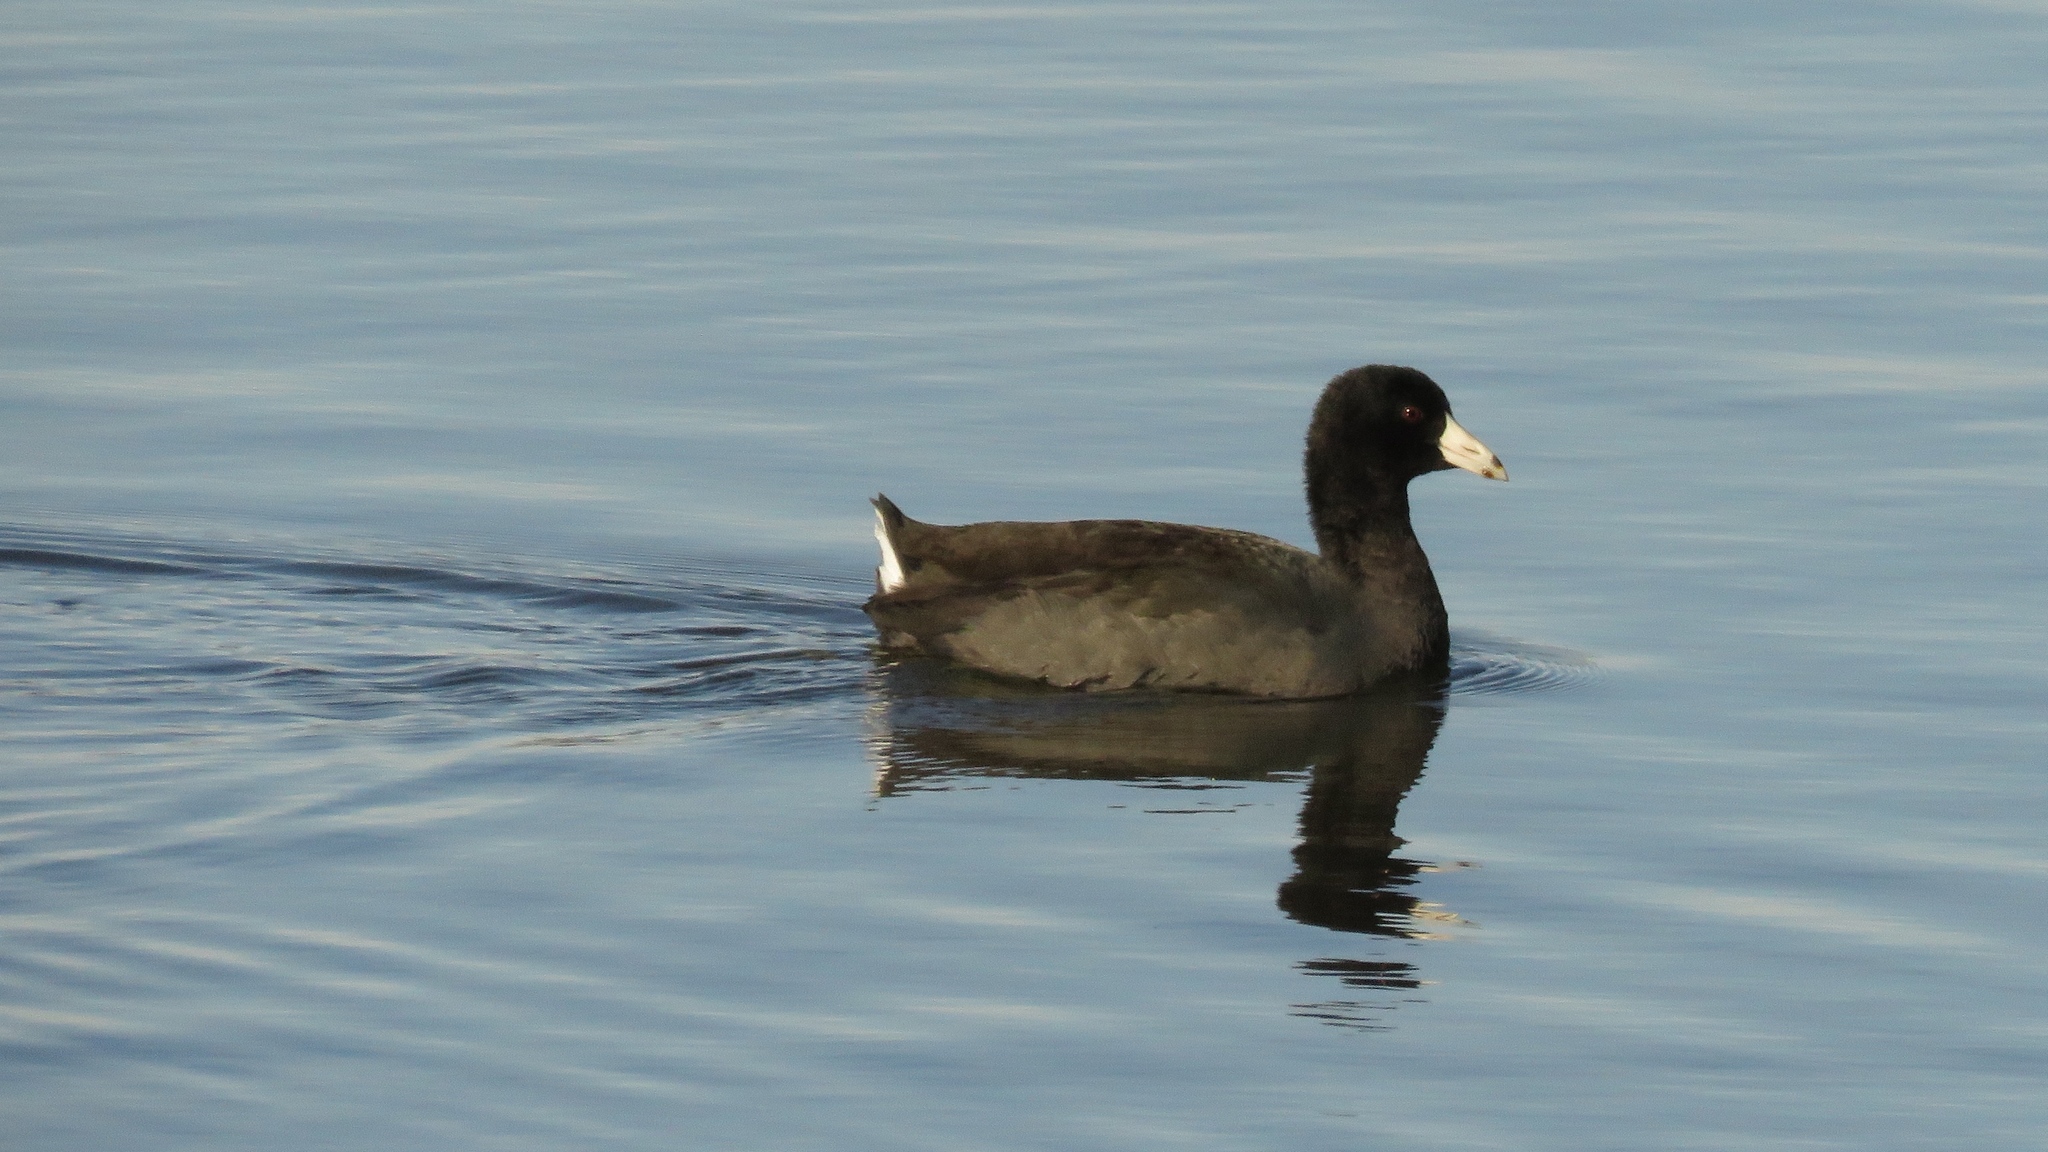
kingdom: Animalia
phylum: Chordata
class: Aves
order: Gruiformes
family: Rallidae
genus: Fulica
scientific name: Fulica americana
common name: American coot
